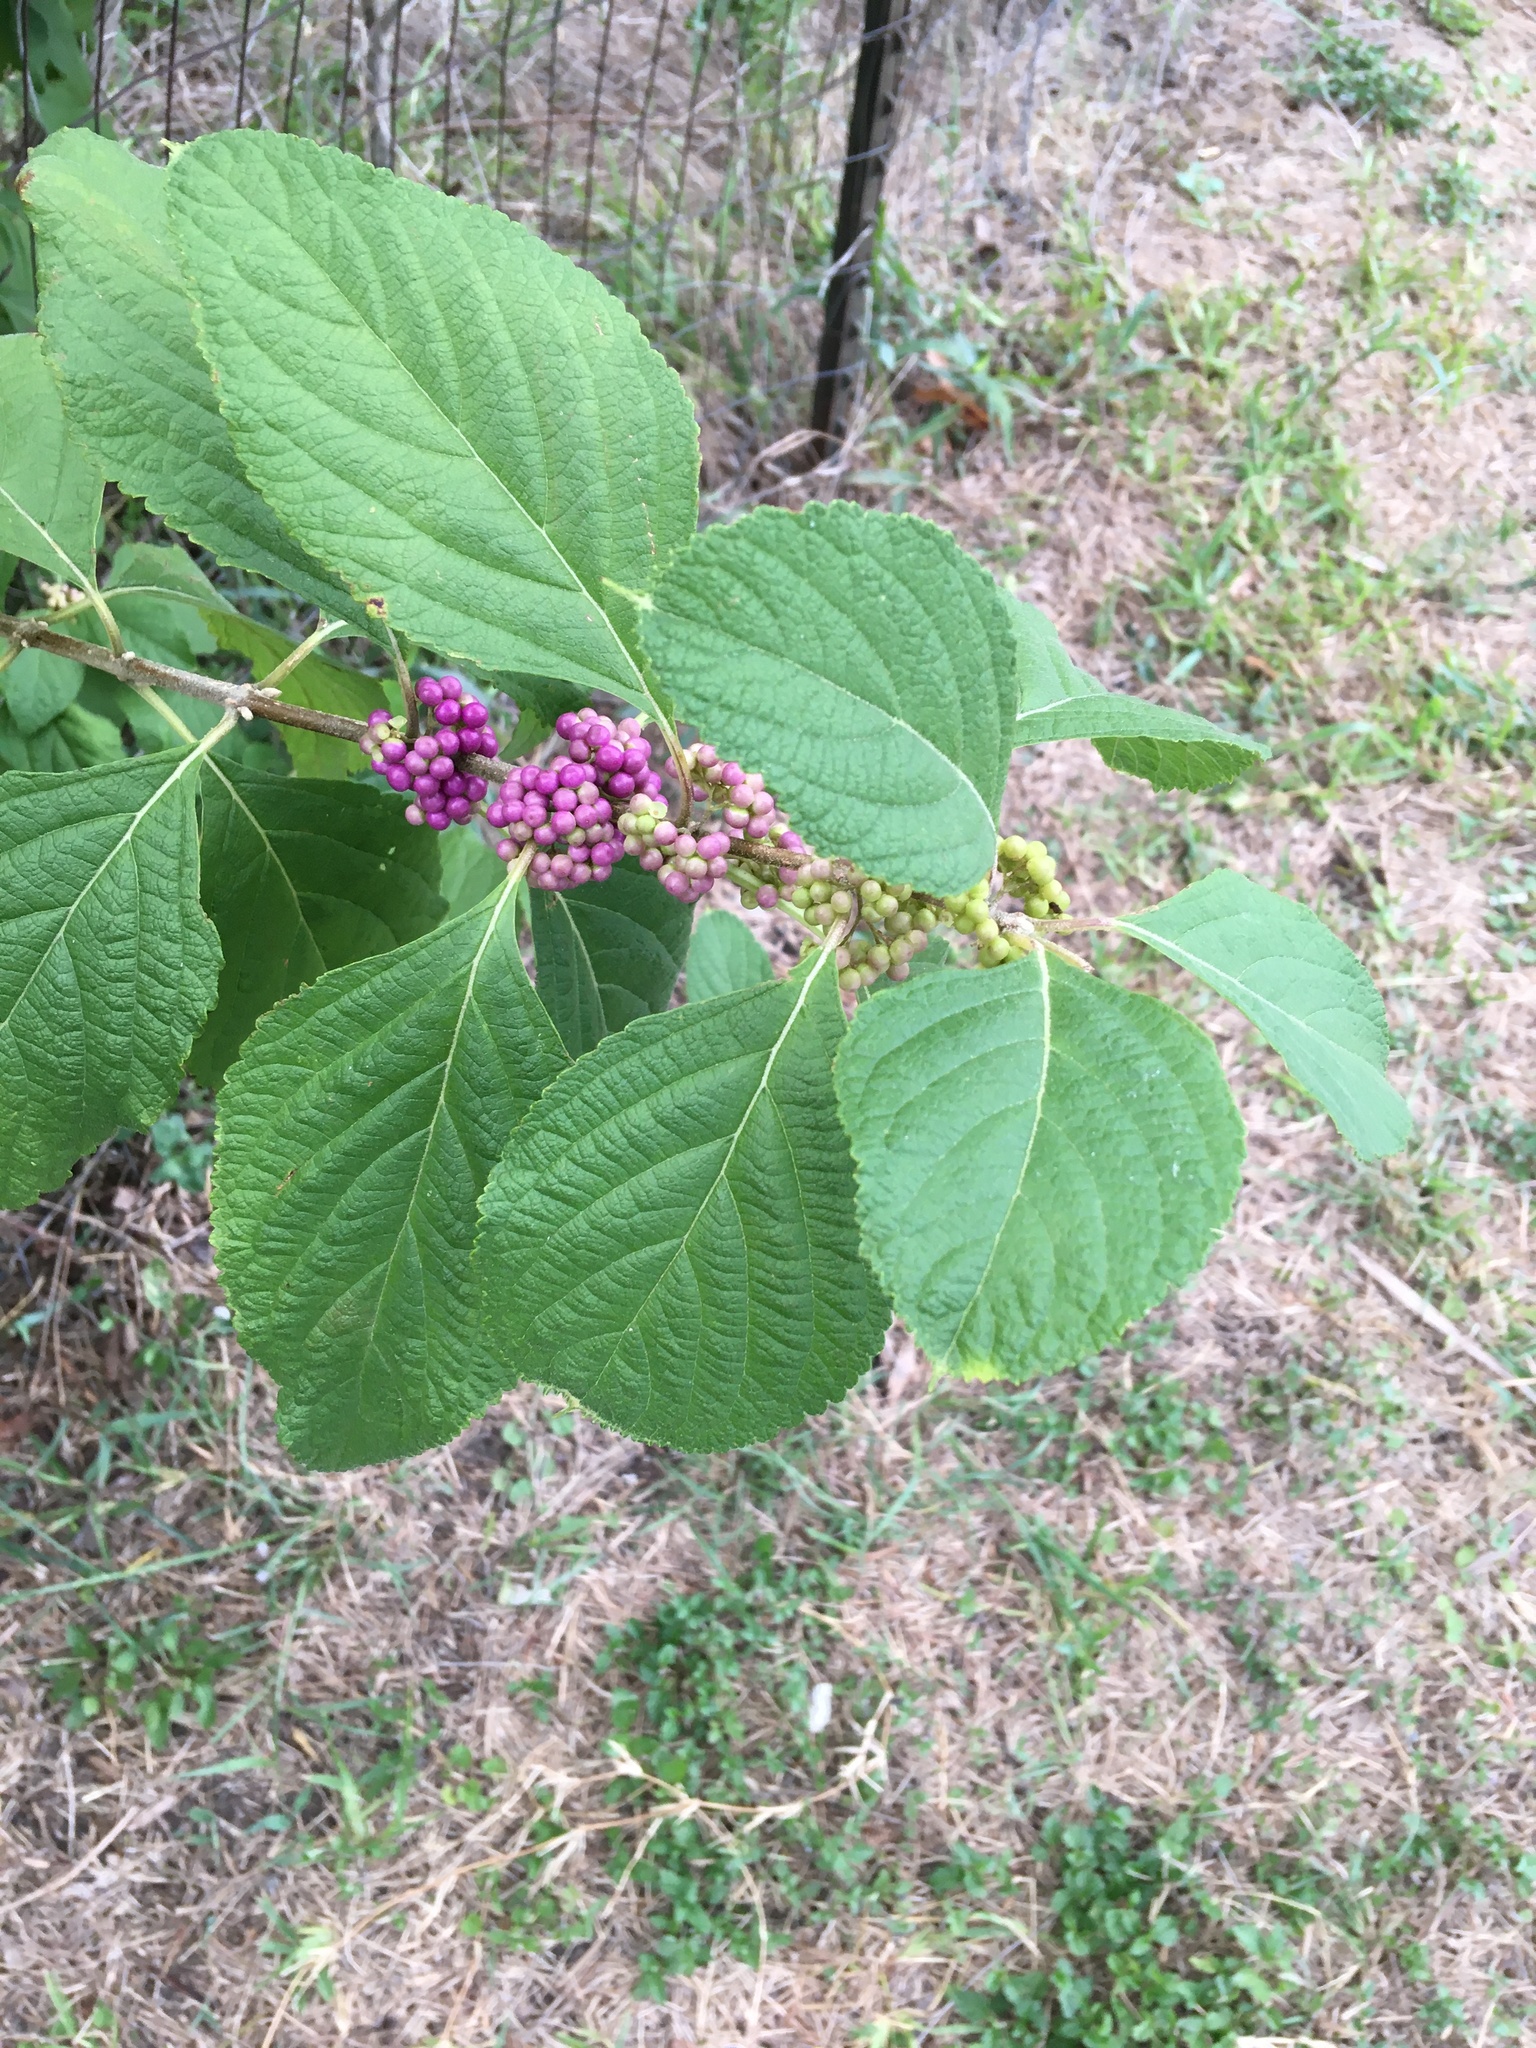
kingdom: Plantae
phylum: Tracheophyta
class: Magnoliopsida
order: Lamiales
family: Lamiaceae
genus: Callicarpa
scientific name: Callicarpa americana
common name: American beautyberry
